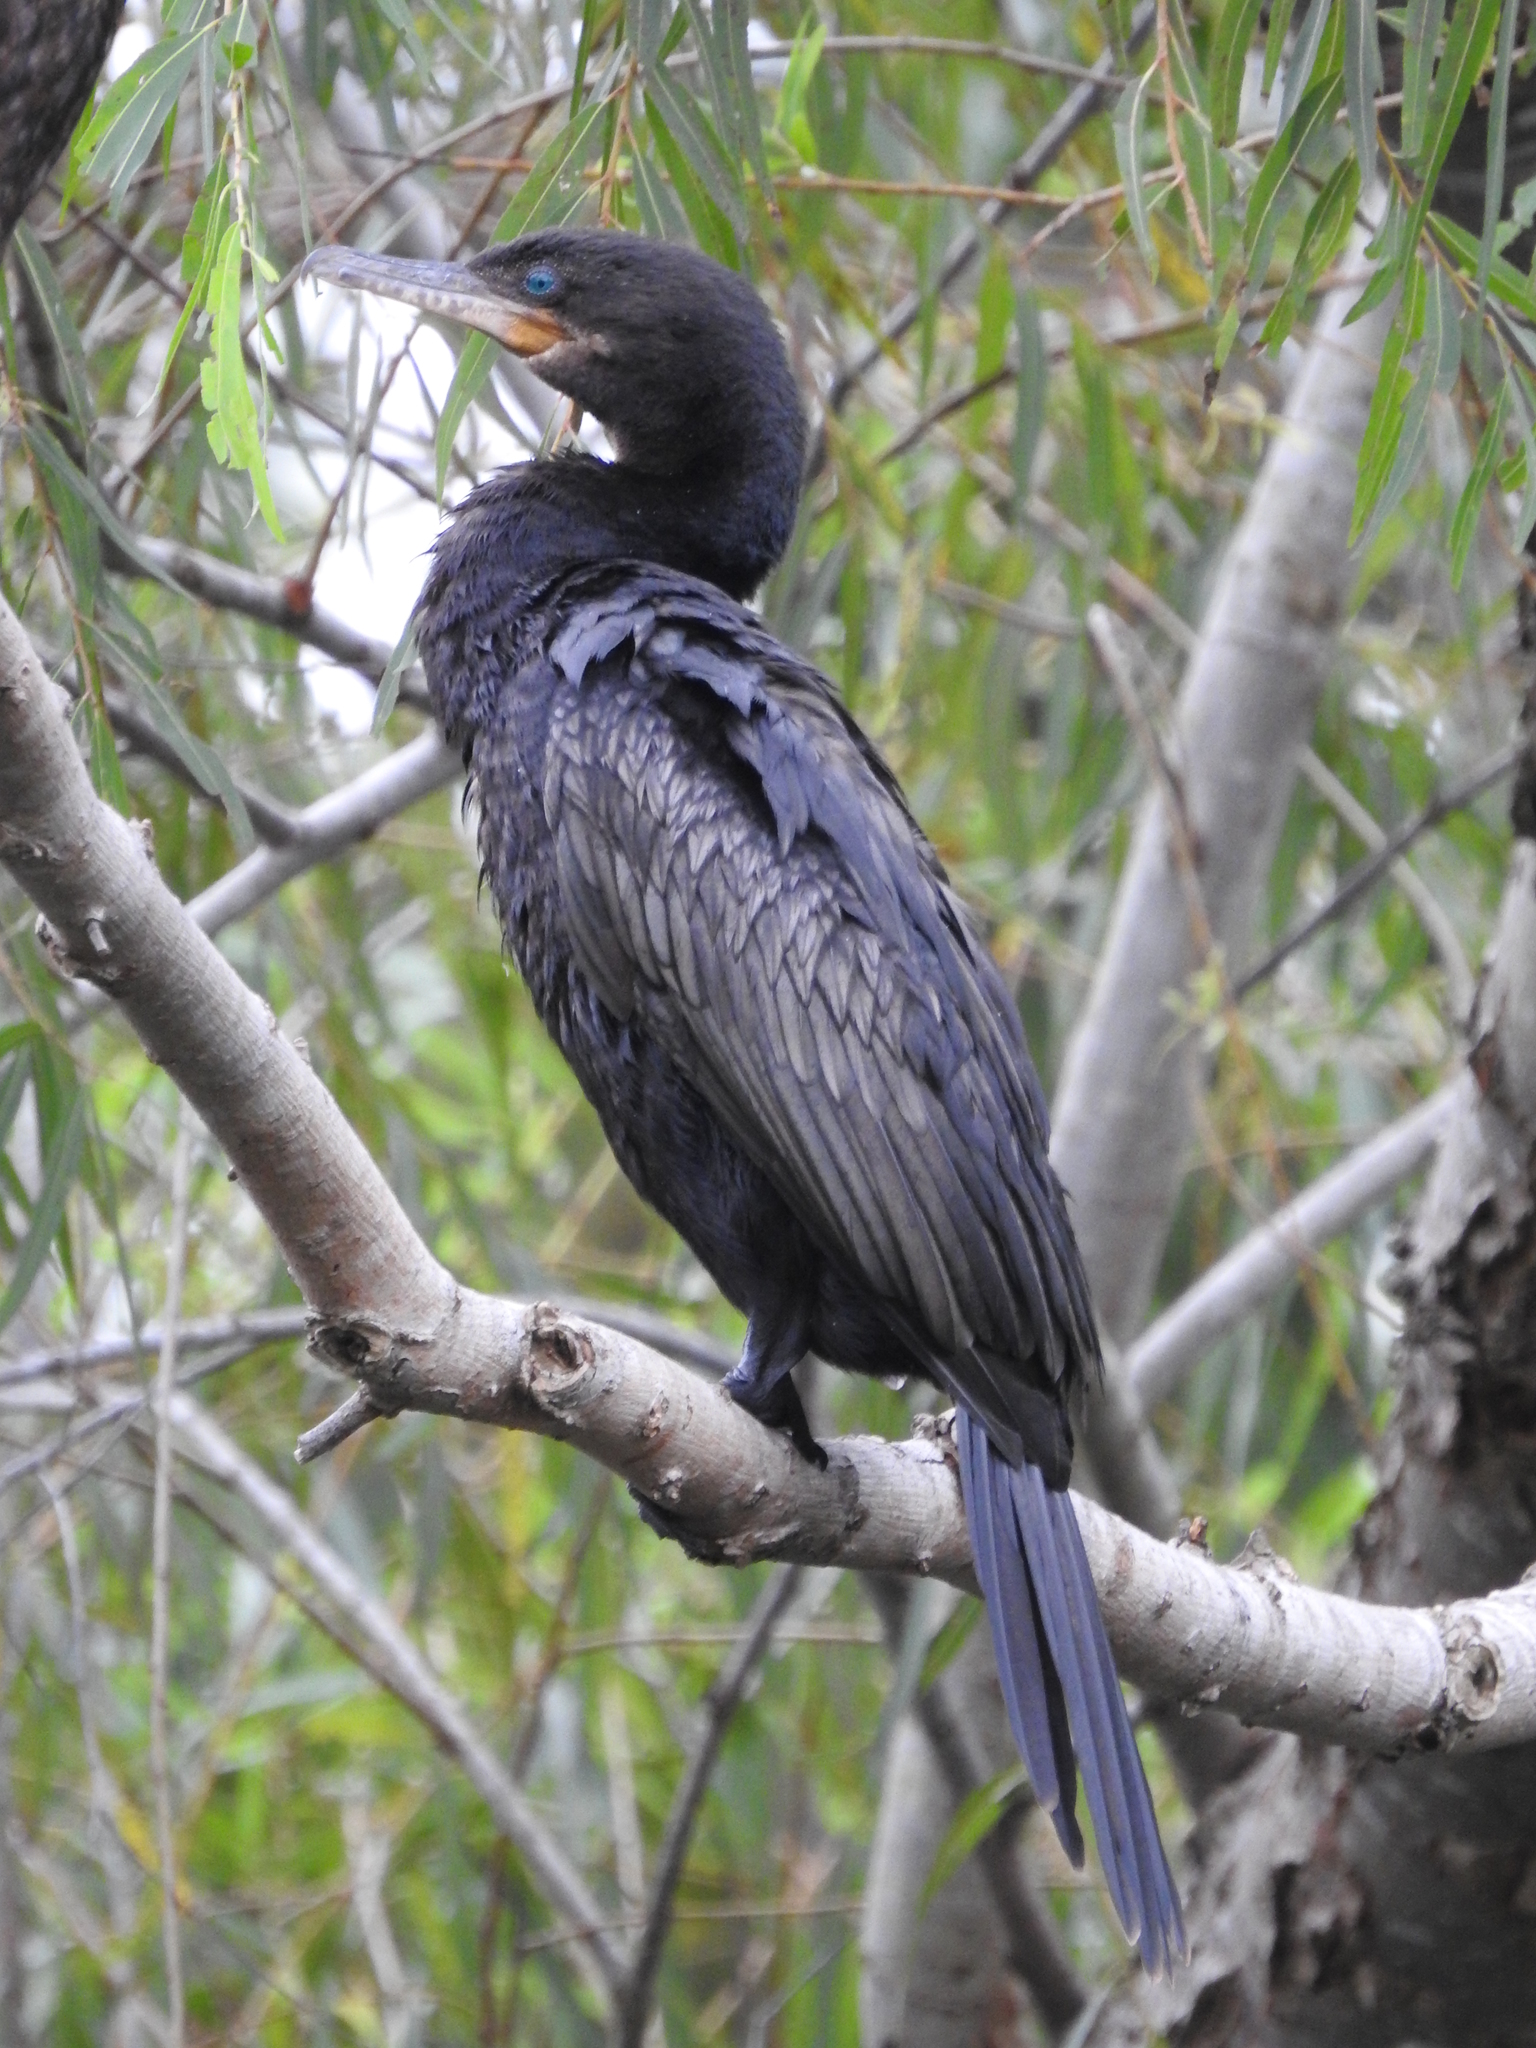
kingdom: Animalia
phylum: Chordata
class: Aves
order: Suliformes
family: Phalacrocoracidae
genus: Phalacrocorax
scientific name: Phalacrocorax brasilianus
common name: Neotropic cormorant
